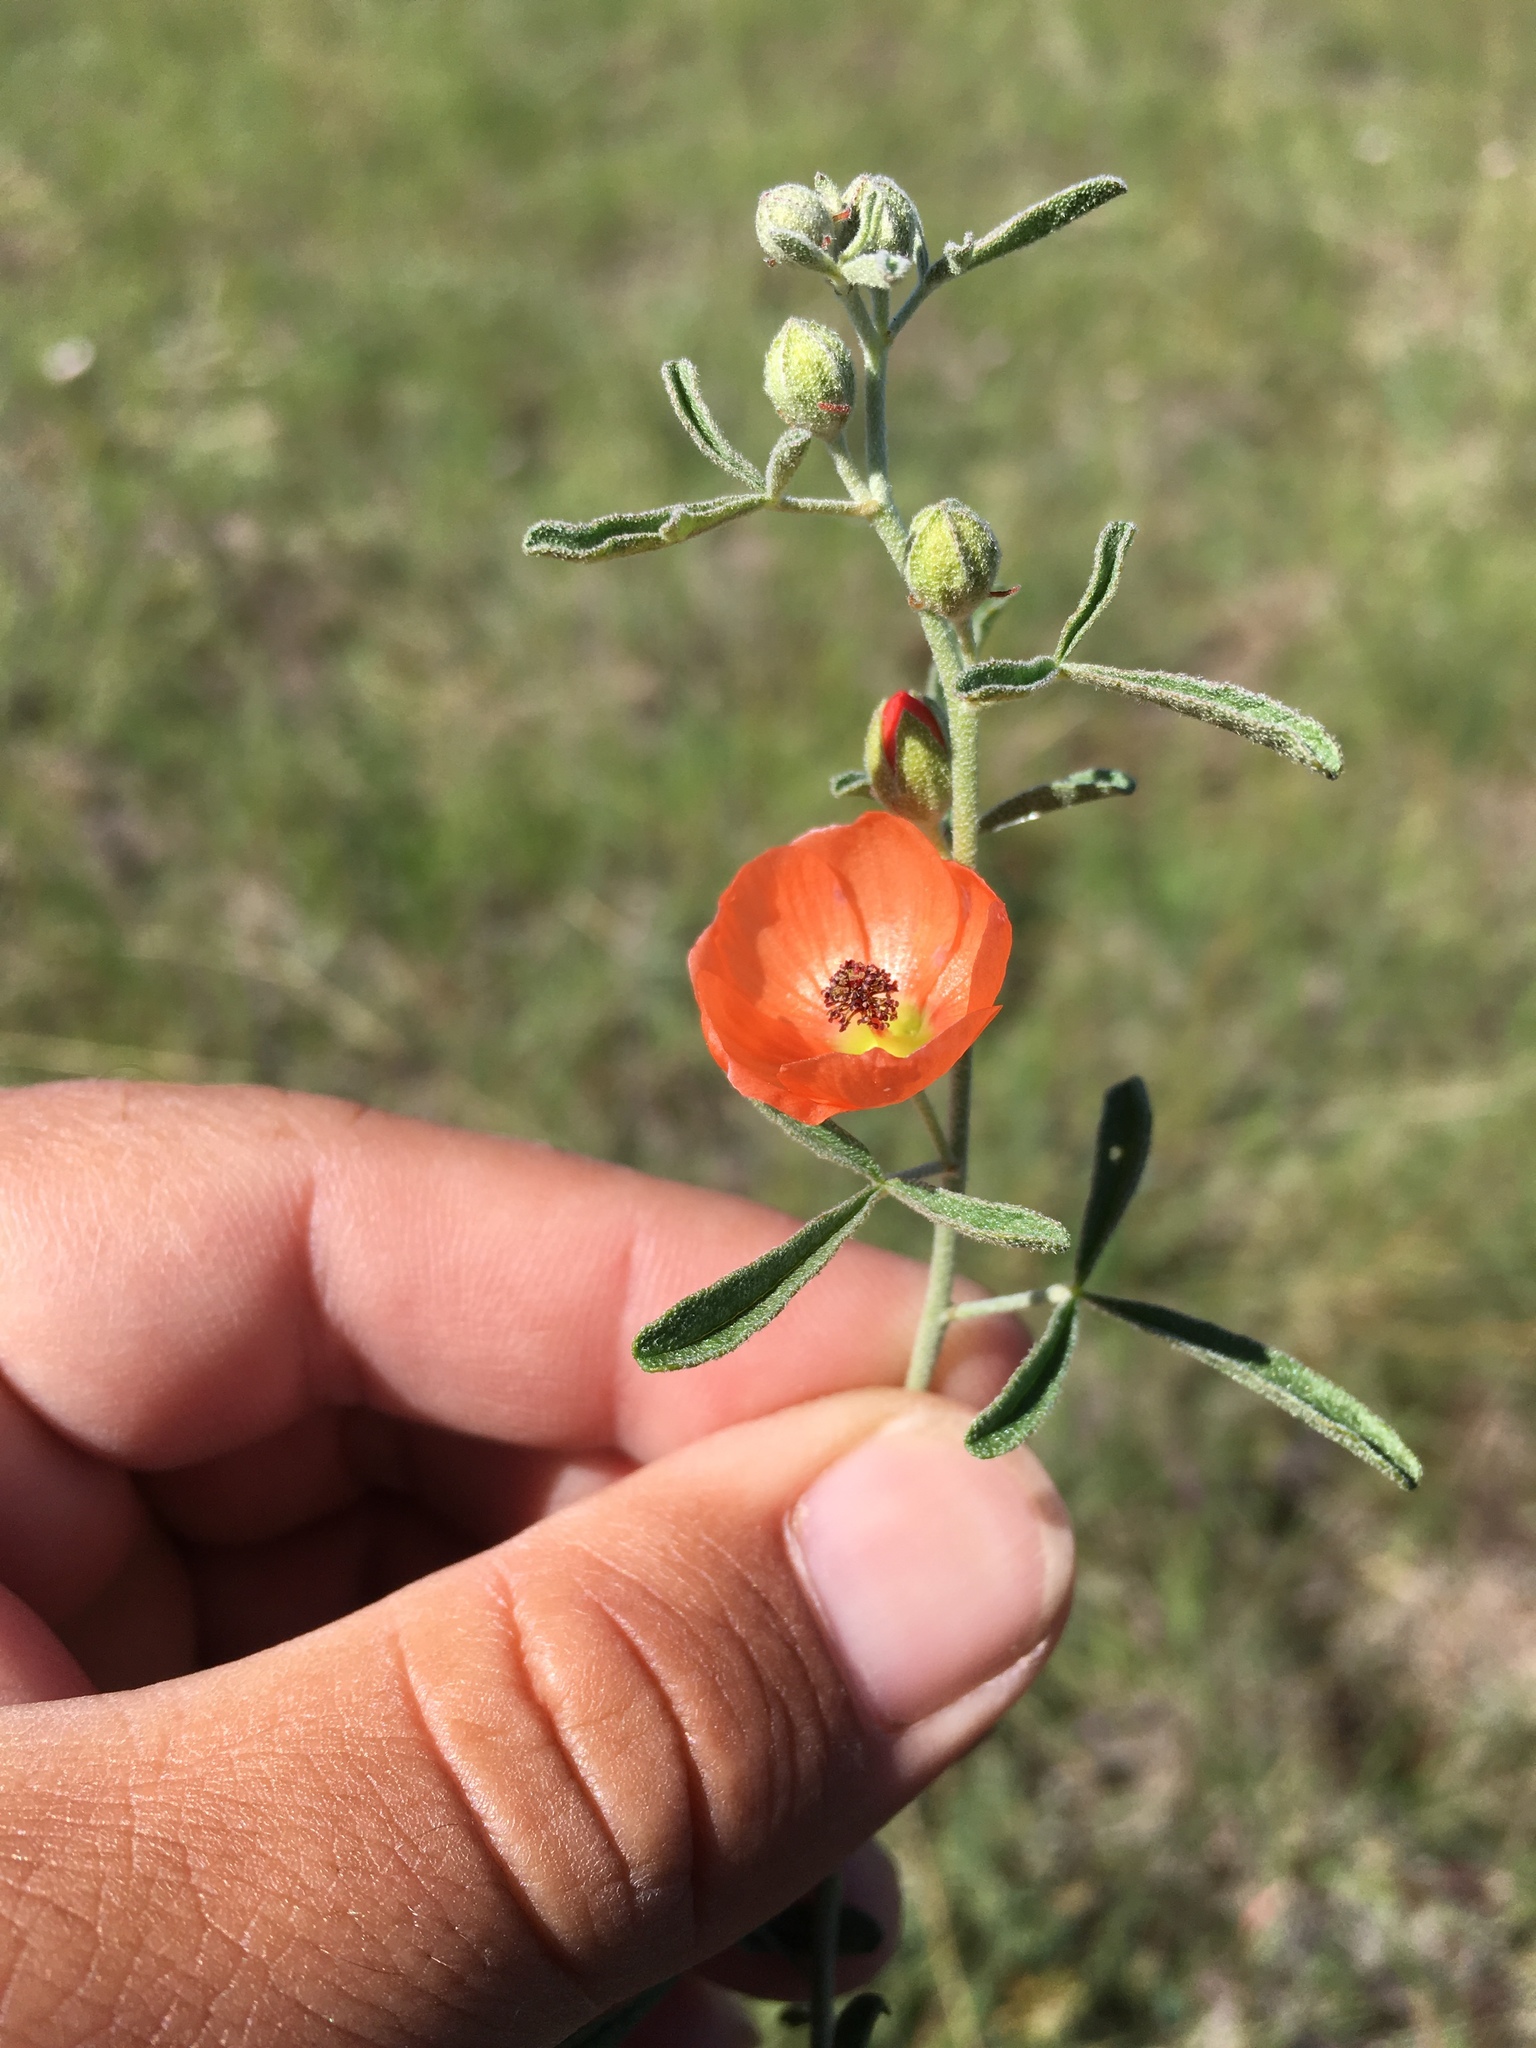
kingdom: Plantae
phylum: Tracheophyta
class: Magnoliopsida
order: Malvales
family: Malvaceae
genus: Sphaeralcea
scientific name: Sphaeralcea digitata
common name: Juniper-gobe-mallow
